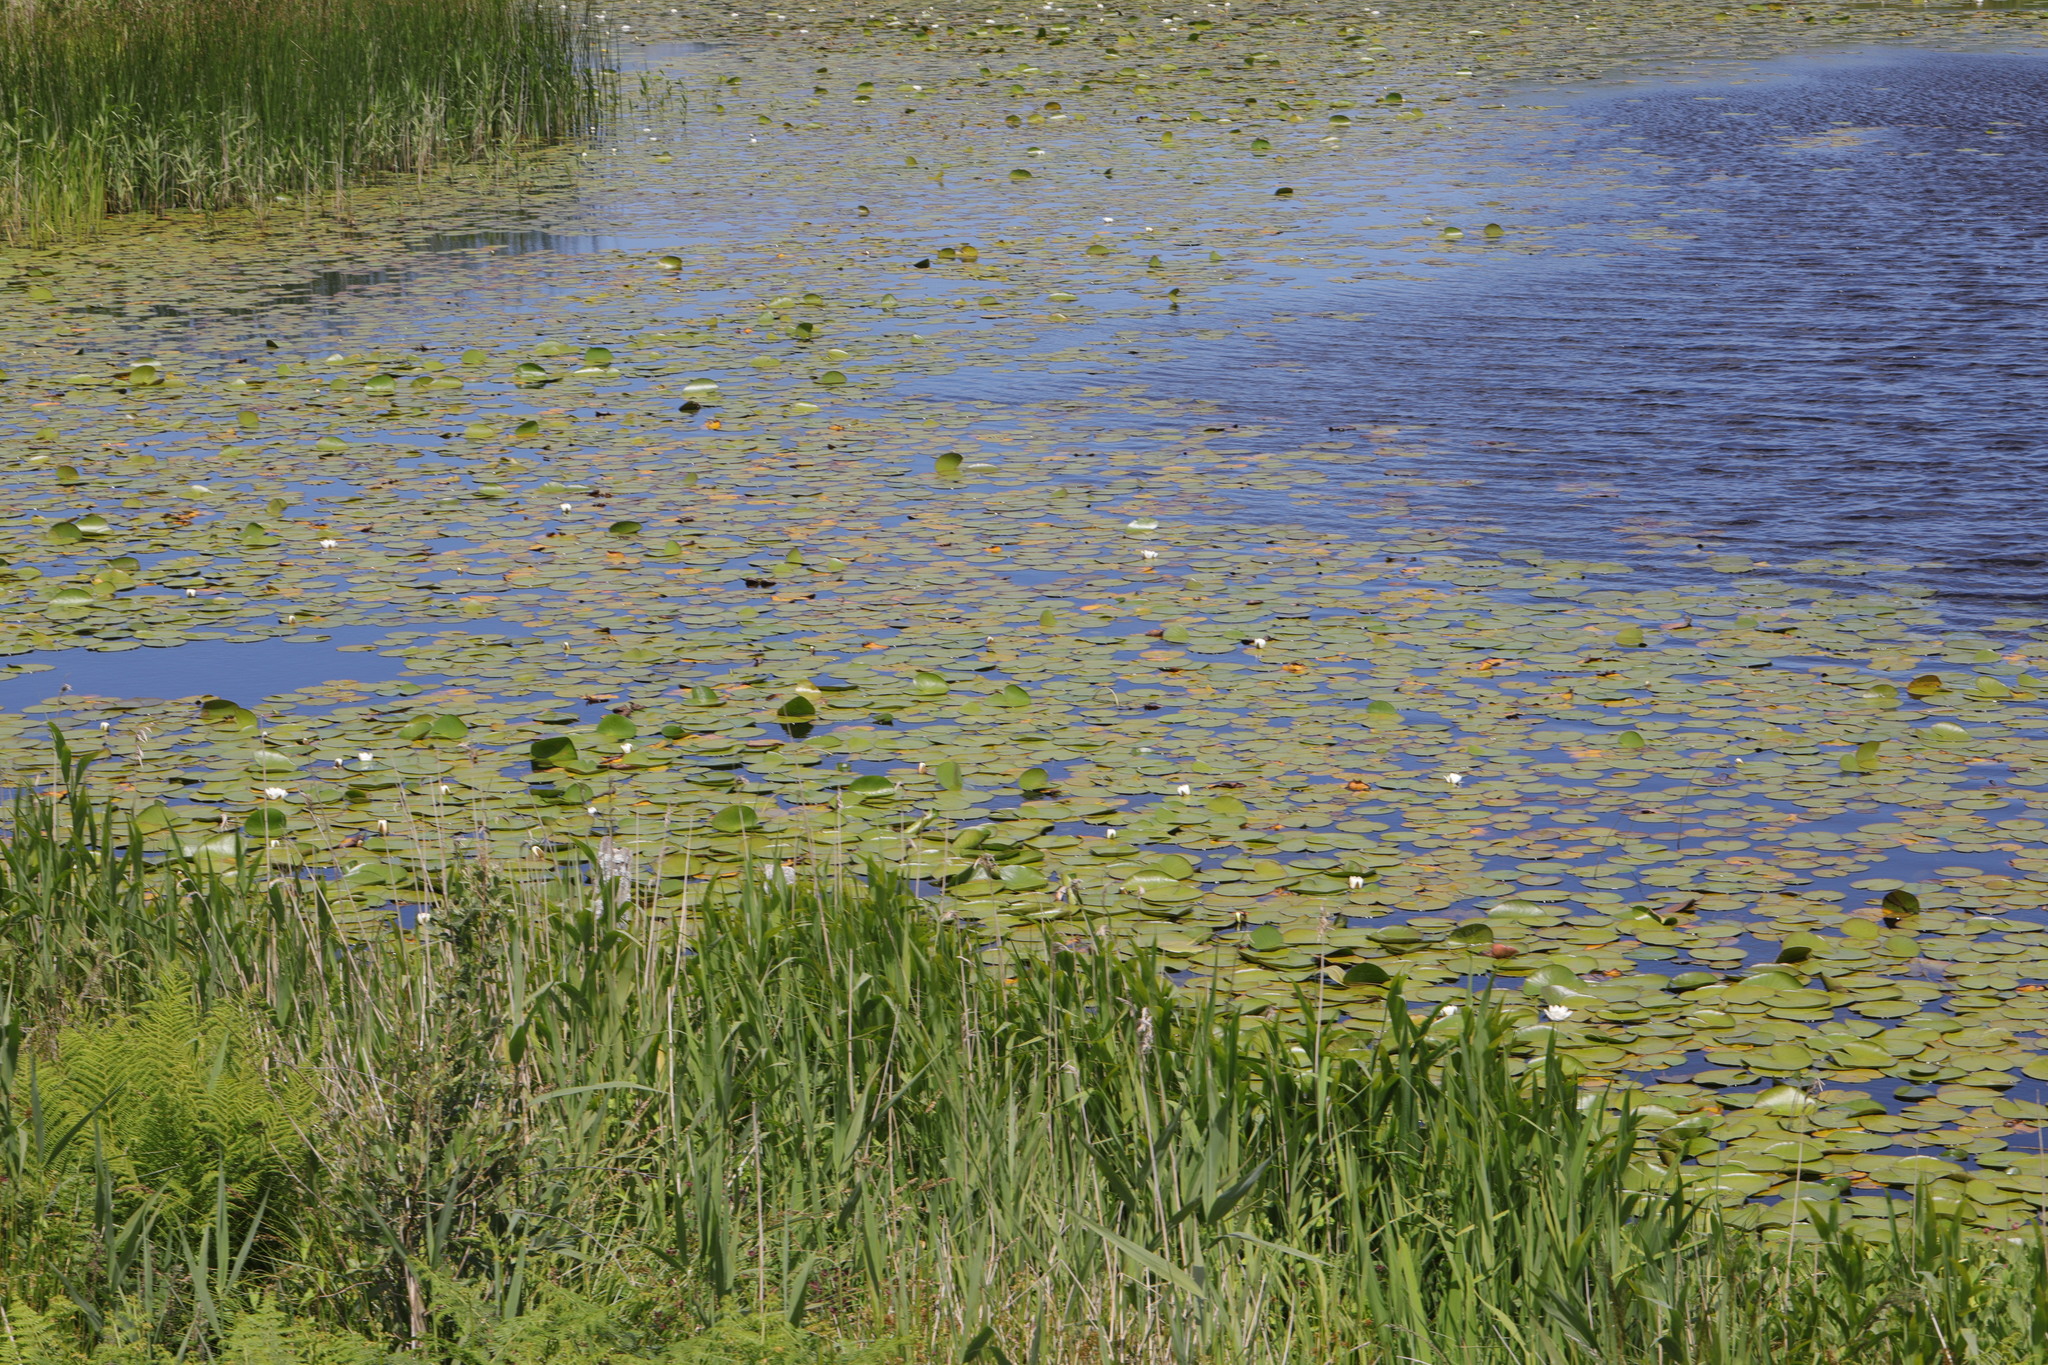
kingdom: Plantae
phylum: Tracheophyta
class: Magnoliopsida
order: Nymphaeales
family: Nymphaeaceae
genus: Nymphaea
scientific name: Nymphaea alba
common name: White water-lily
